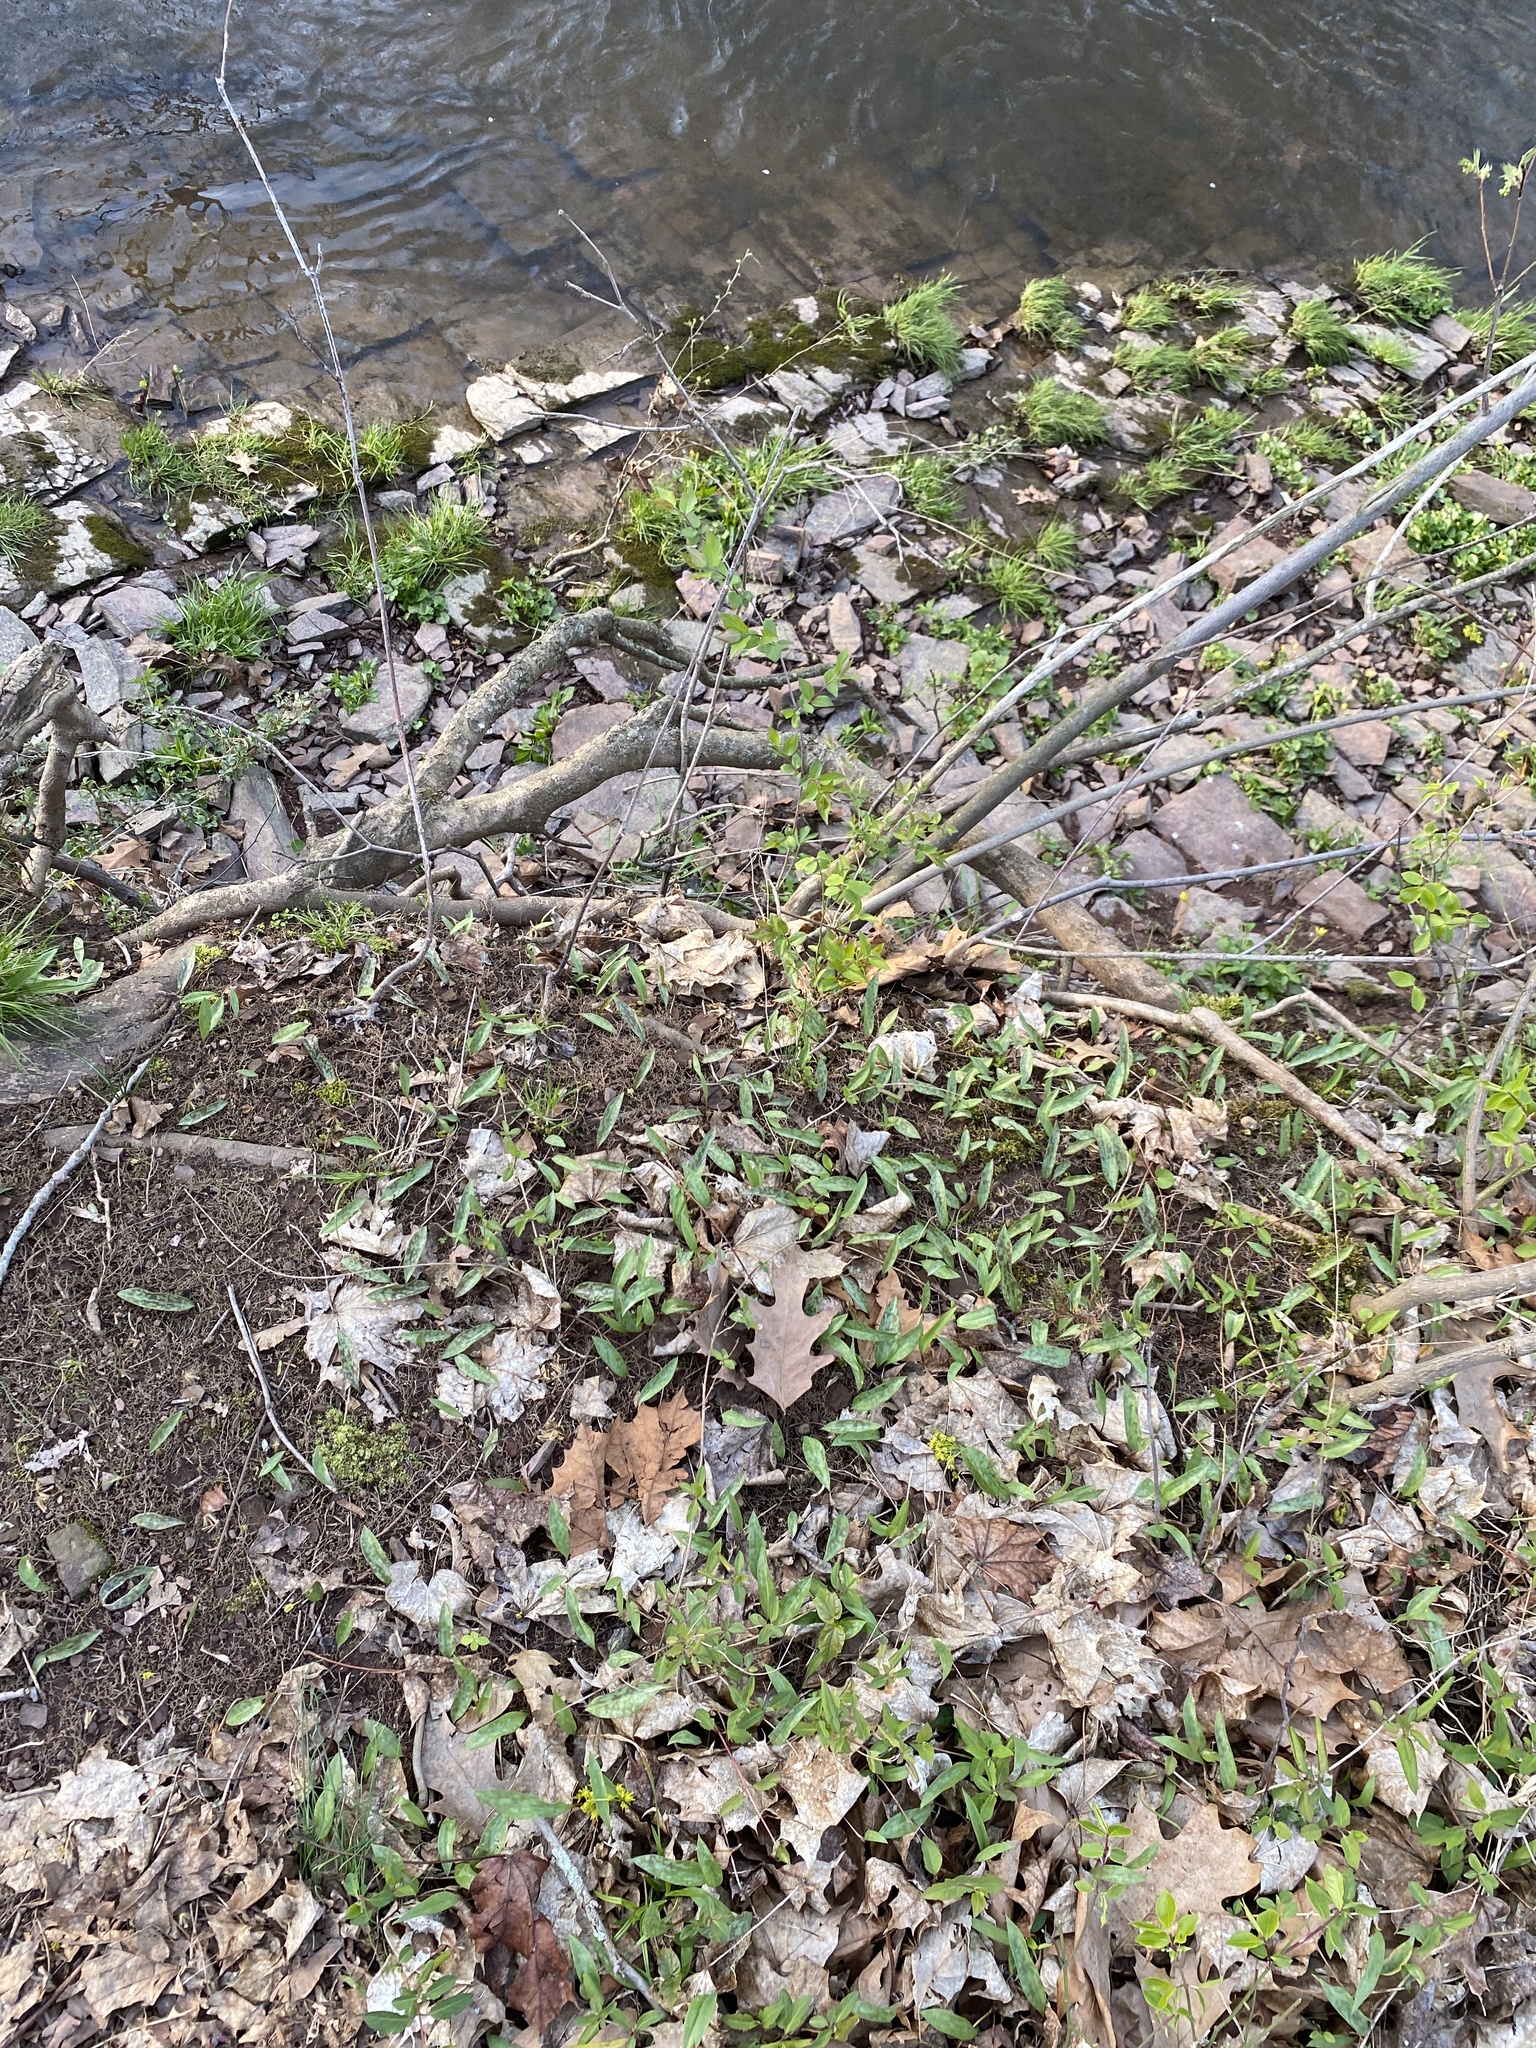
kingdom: Plantae
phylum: Tracheophyta
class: Liliopsida
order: Liliales
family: Liliaceae
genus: Erythronium
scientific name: Erythronium americanum
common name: Yellow adder's-tongue
